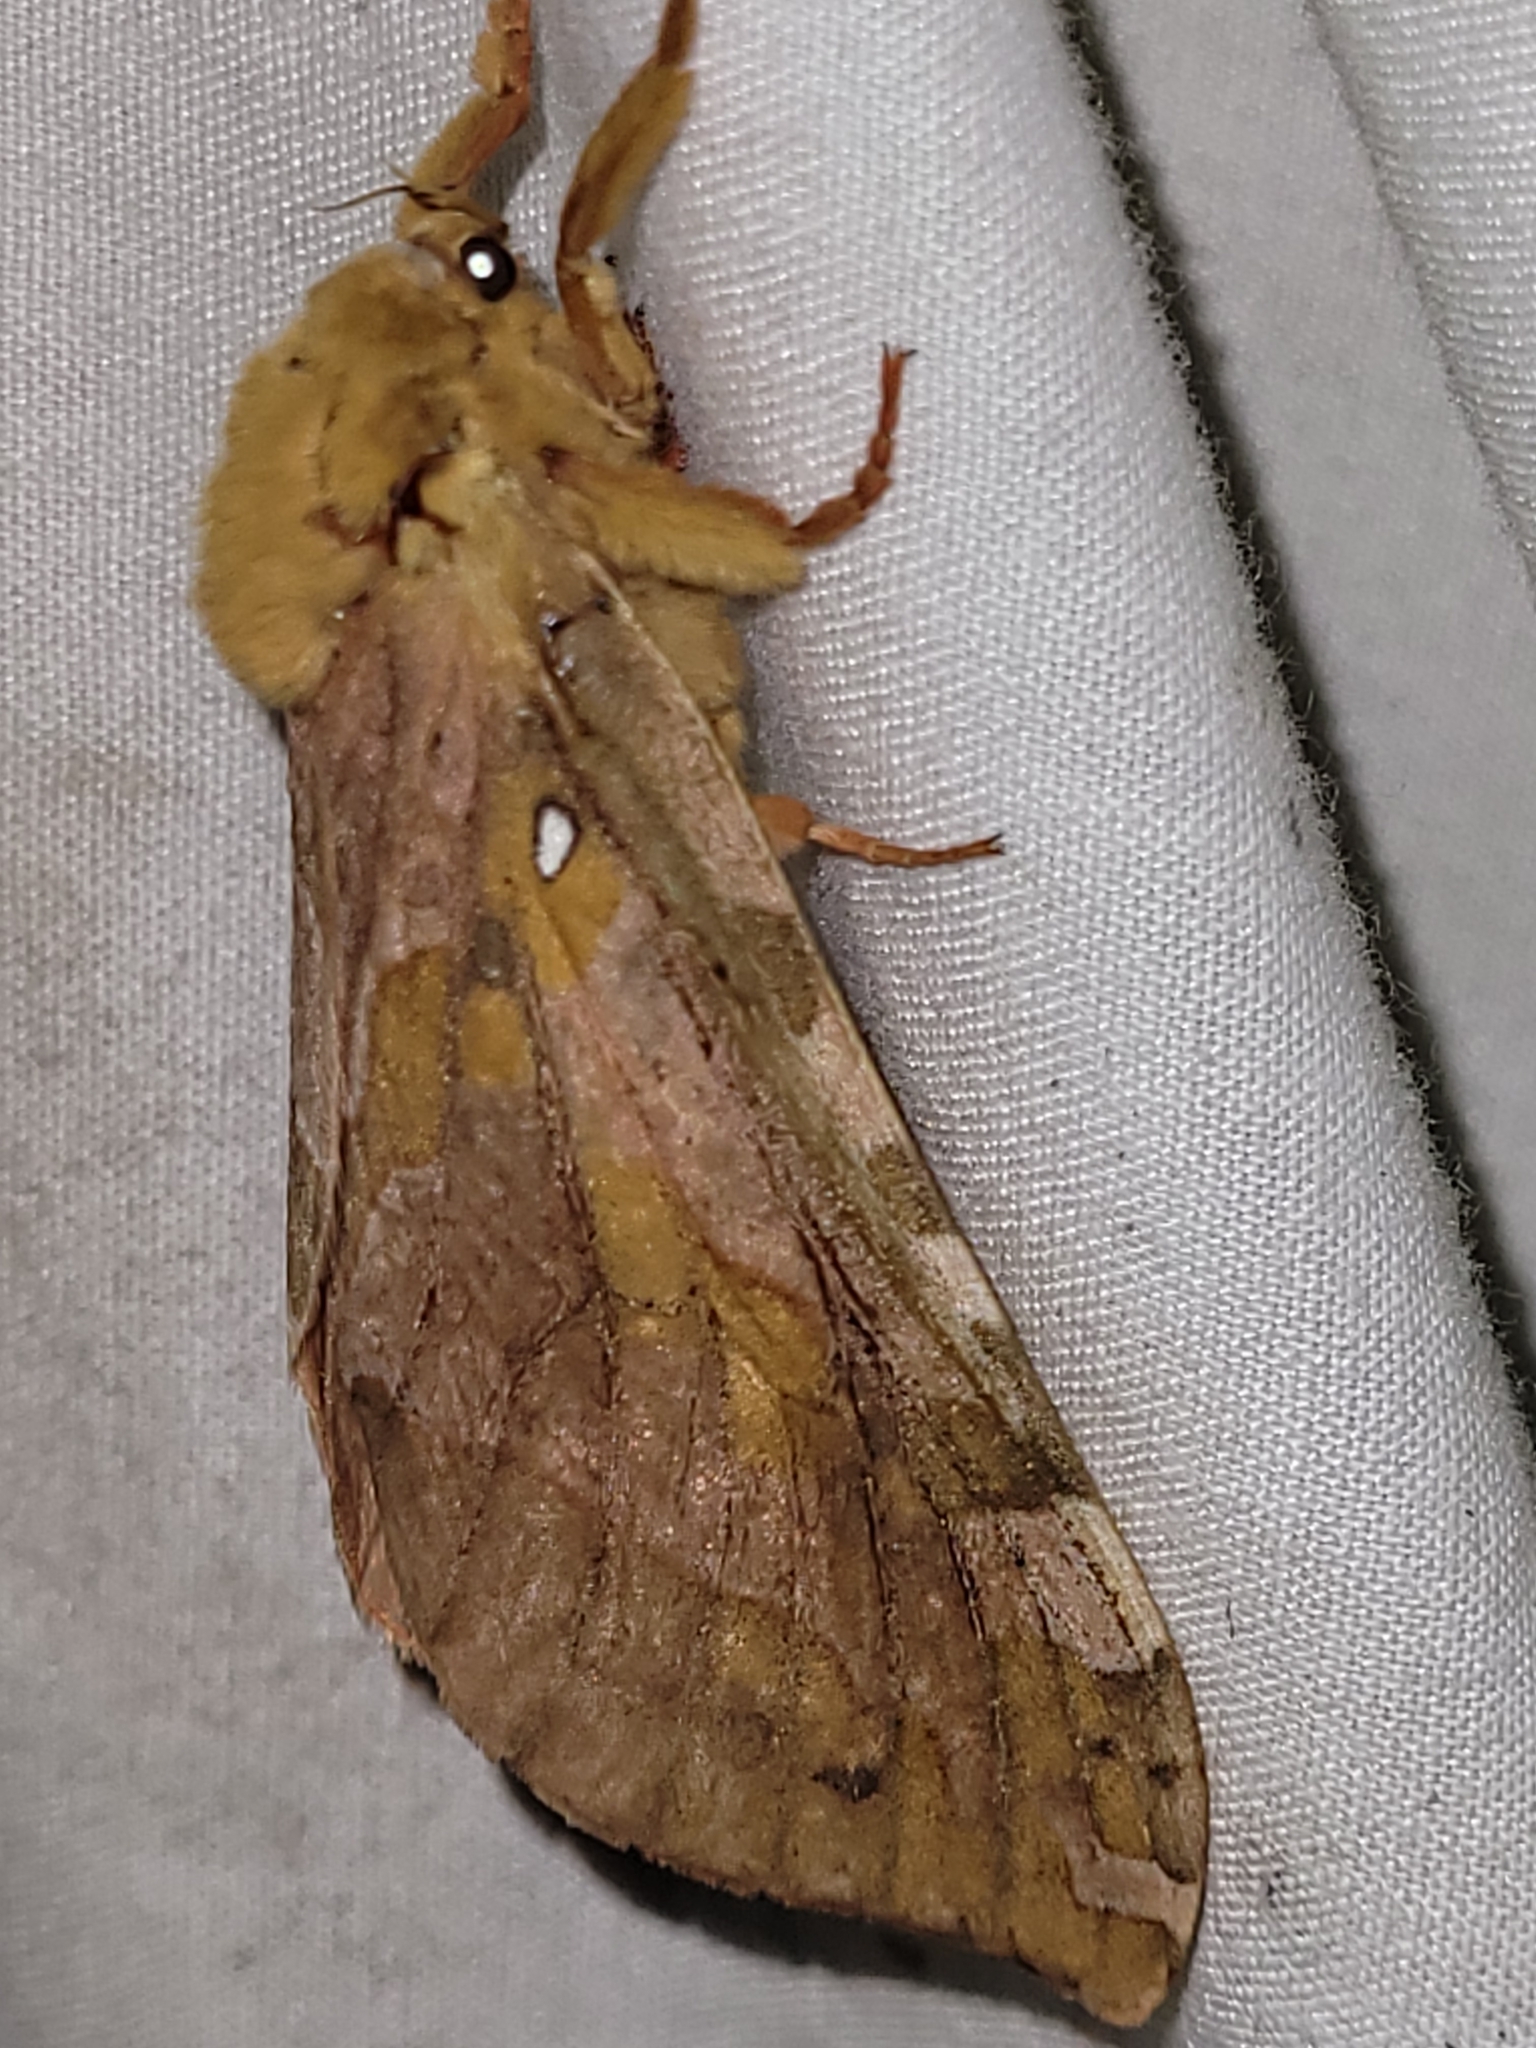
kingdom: Animalia
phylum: Arthropoda
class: Insecta
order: Lepidoptera
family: Hepialidae
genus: Sthenopis
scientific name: Sthenopis purpurascens
